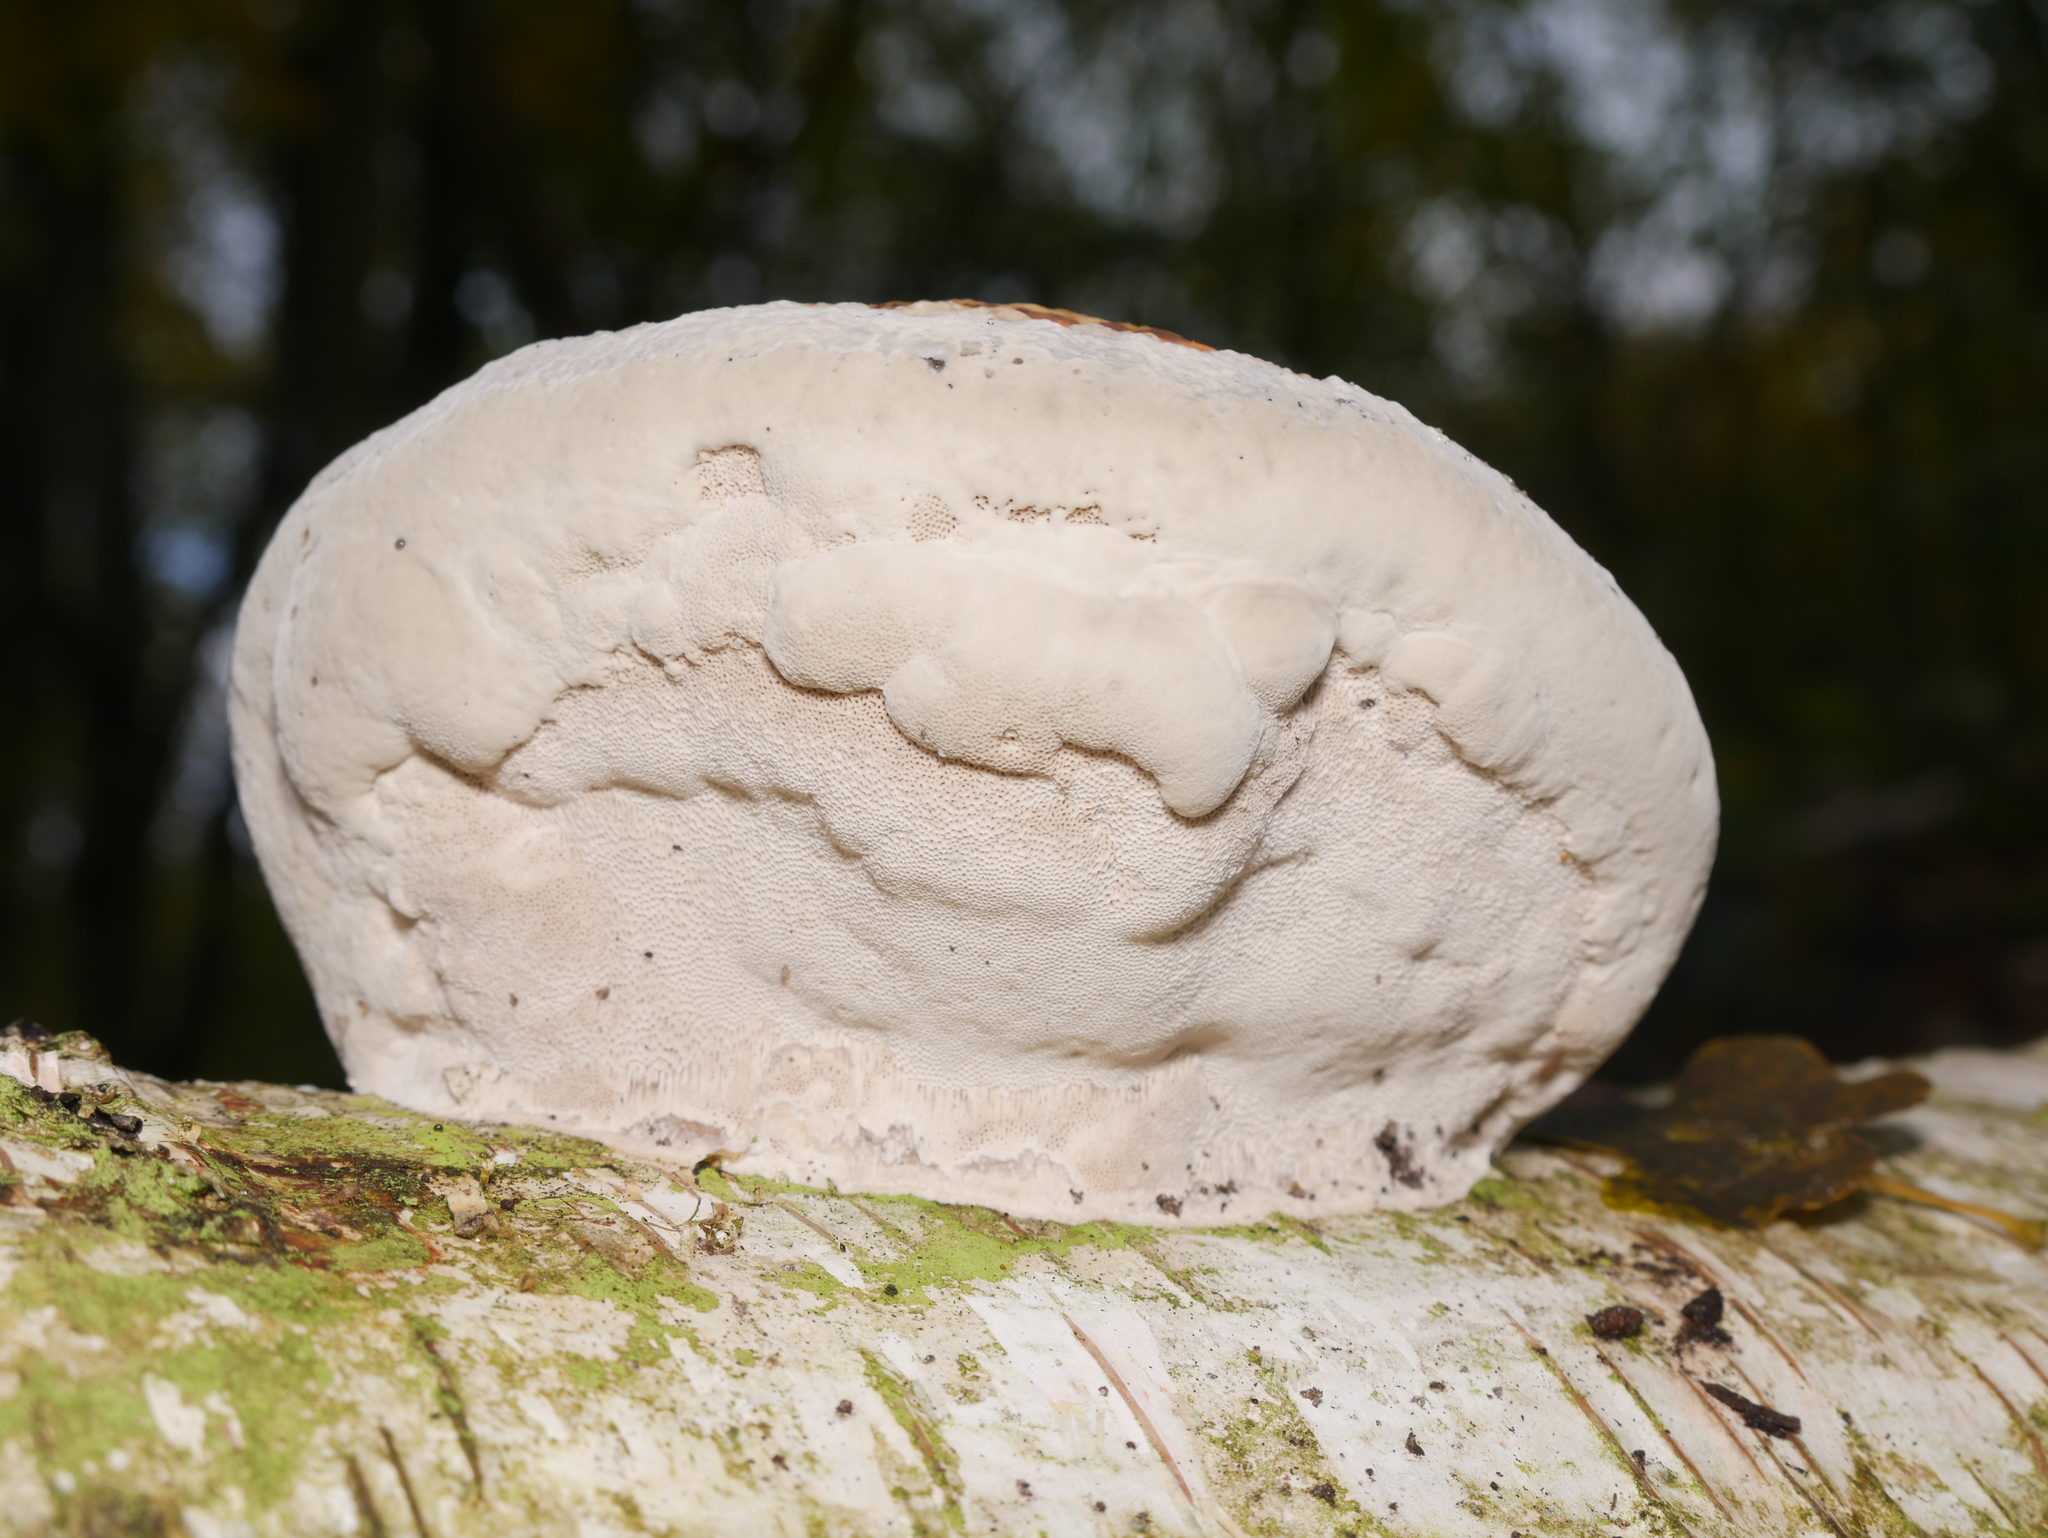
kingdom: Fungi
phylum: Basidiomycota
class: Agaricomycetes
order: Polyporales
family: Polyporaceae
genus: Fomes
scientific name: Fomes fomentarius
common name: Hoof fungus
